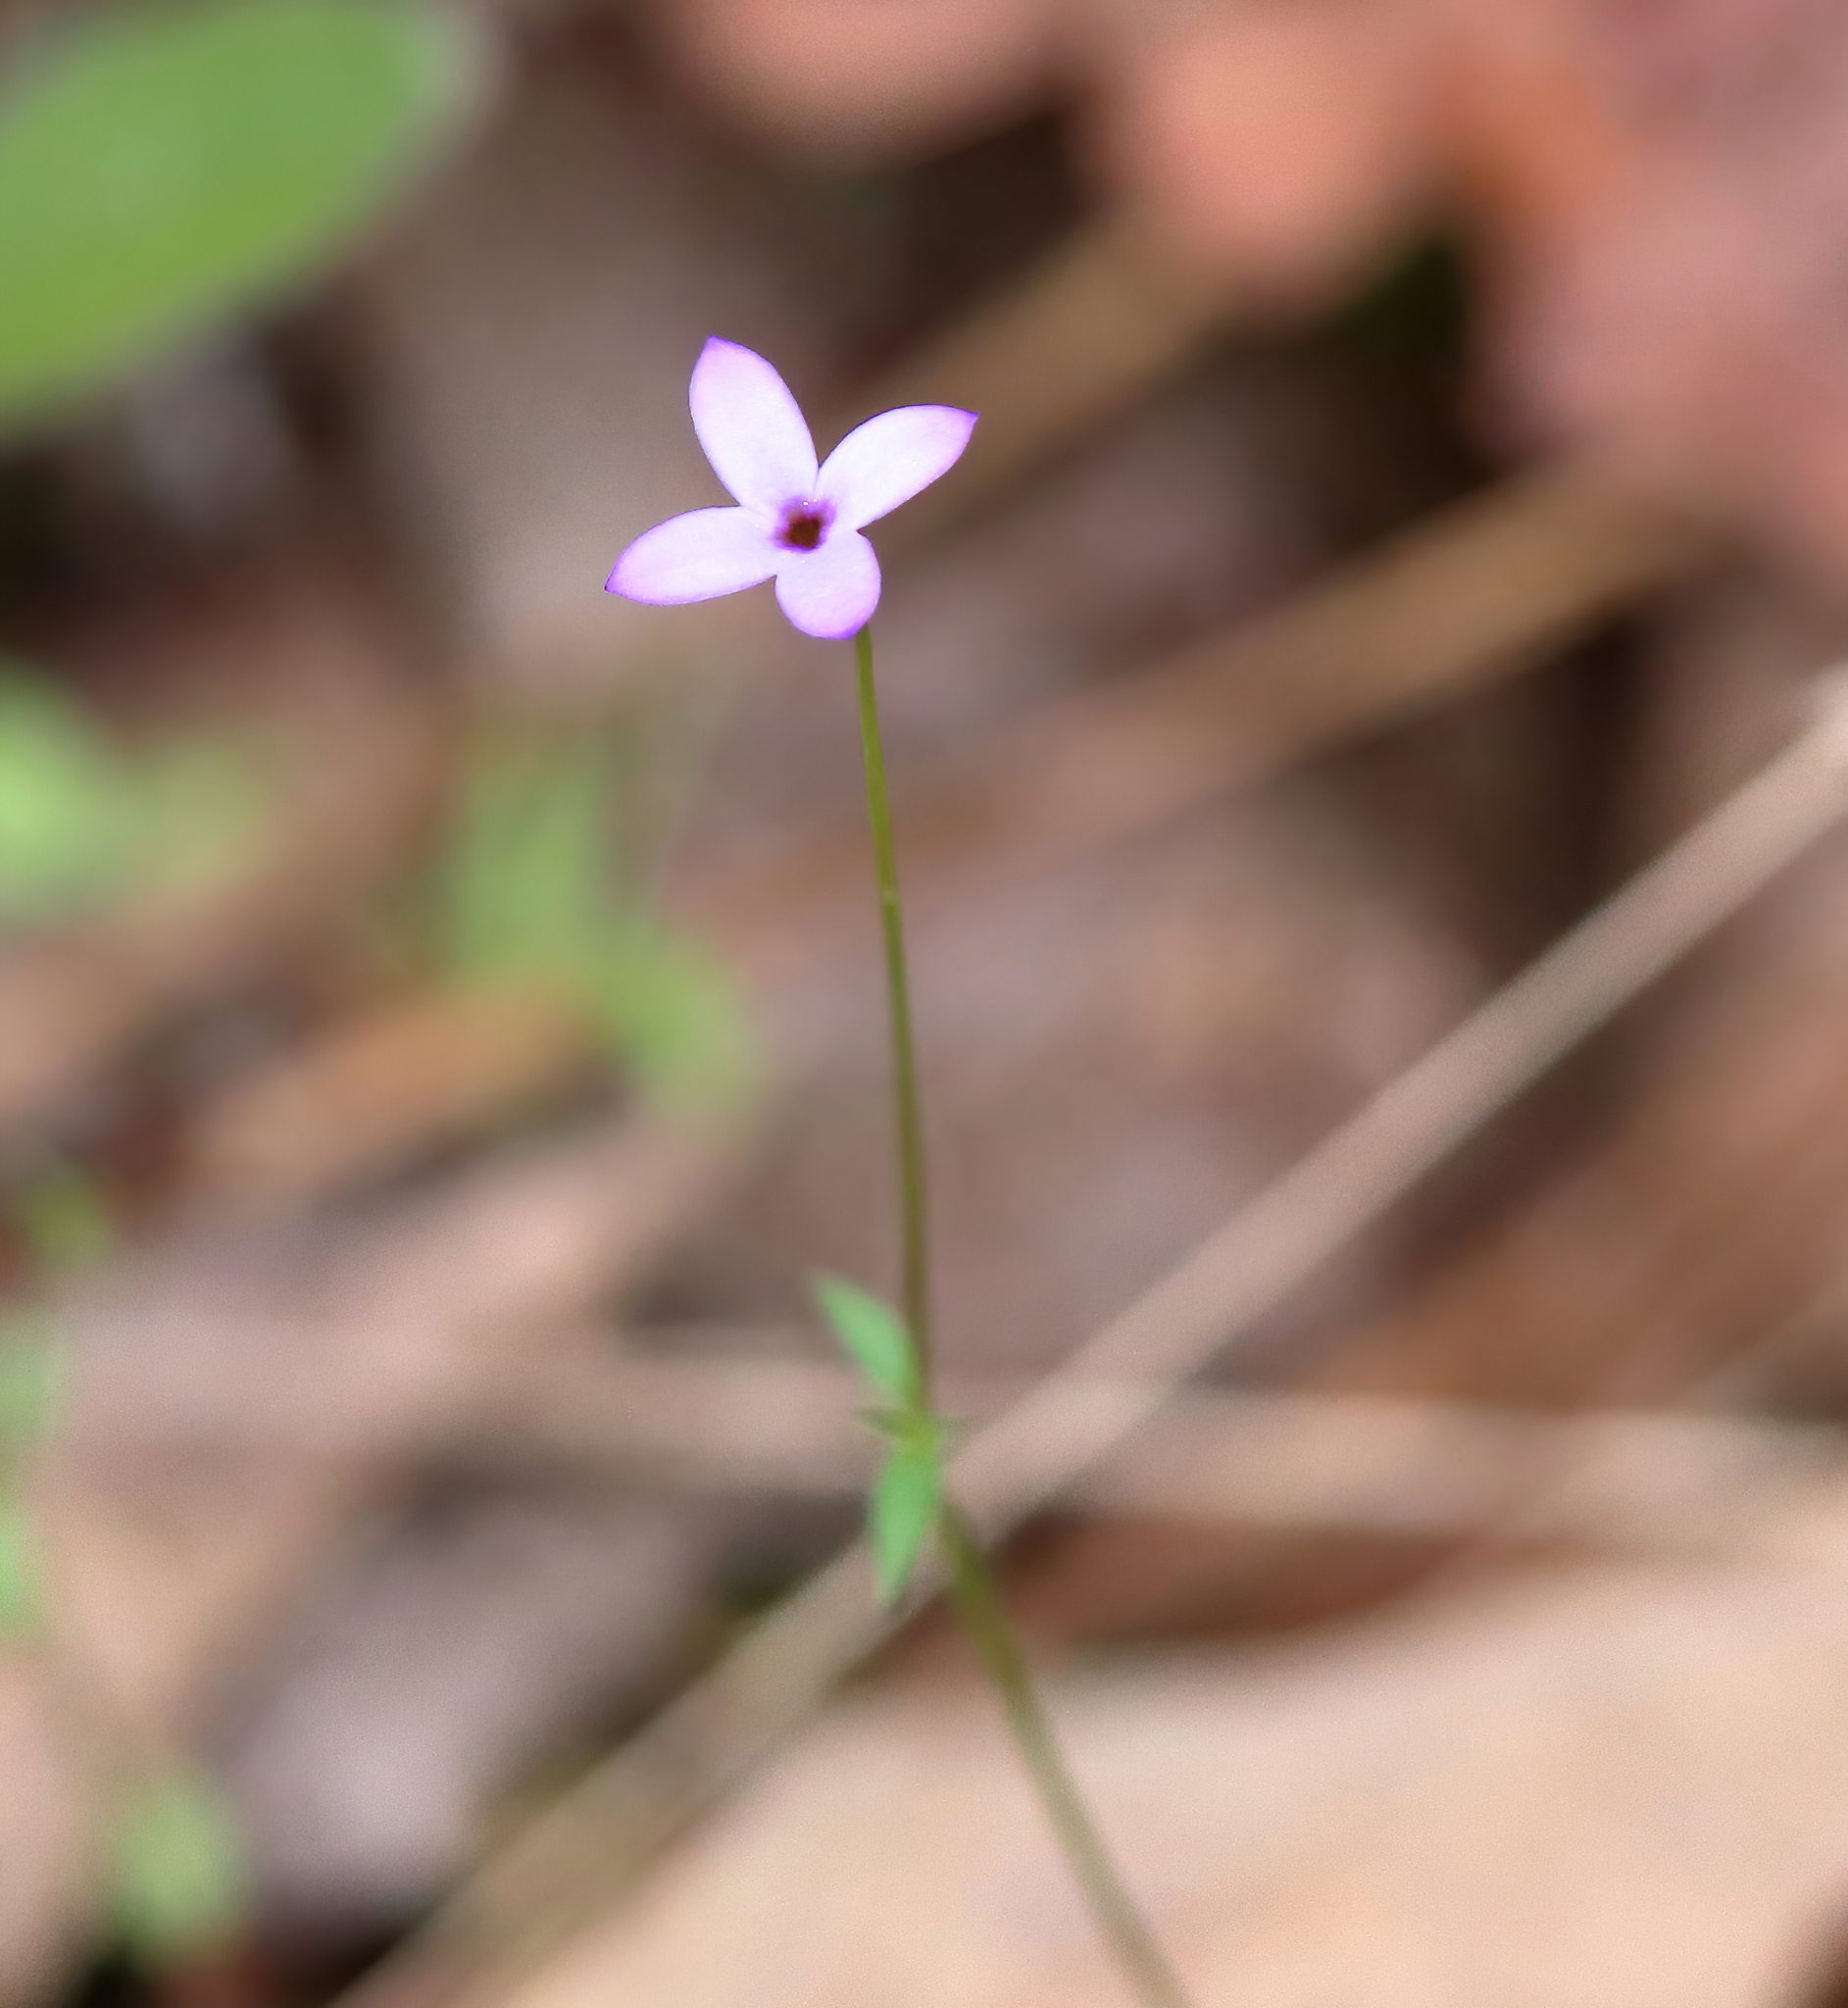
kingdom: Plantae
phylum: Tracheophyta
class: Magnoliopsida
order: Gentianales
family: Rubiaceae
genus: Houstonia
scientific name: Houstonia pusilla
